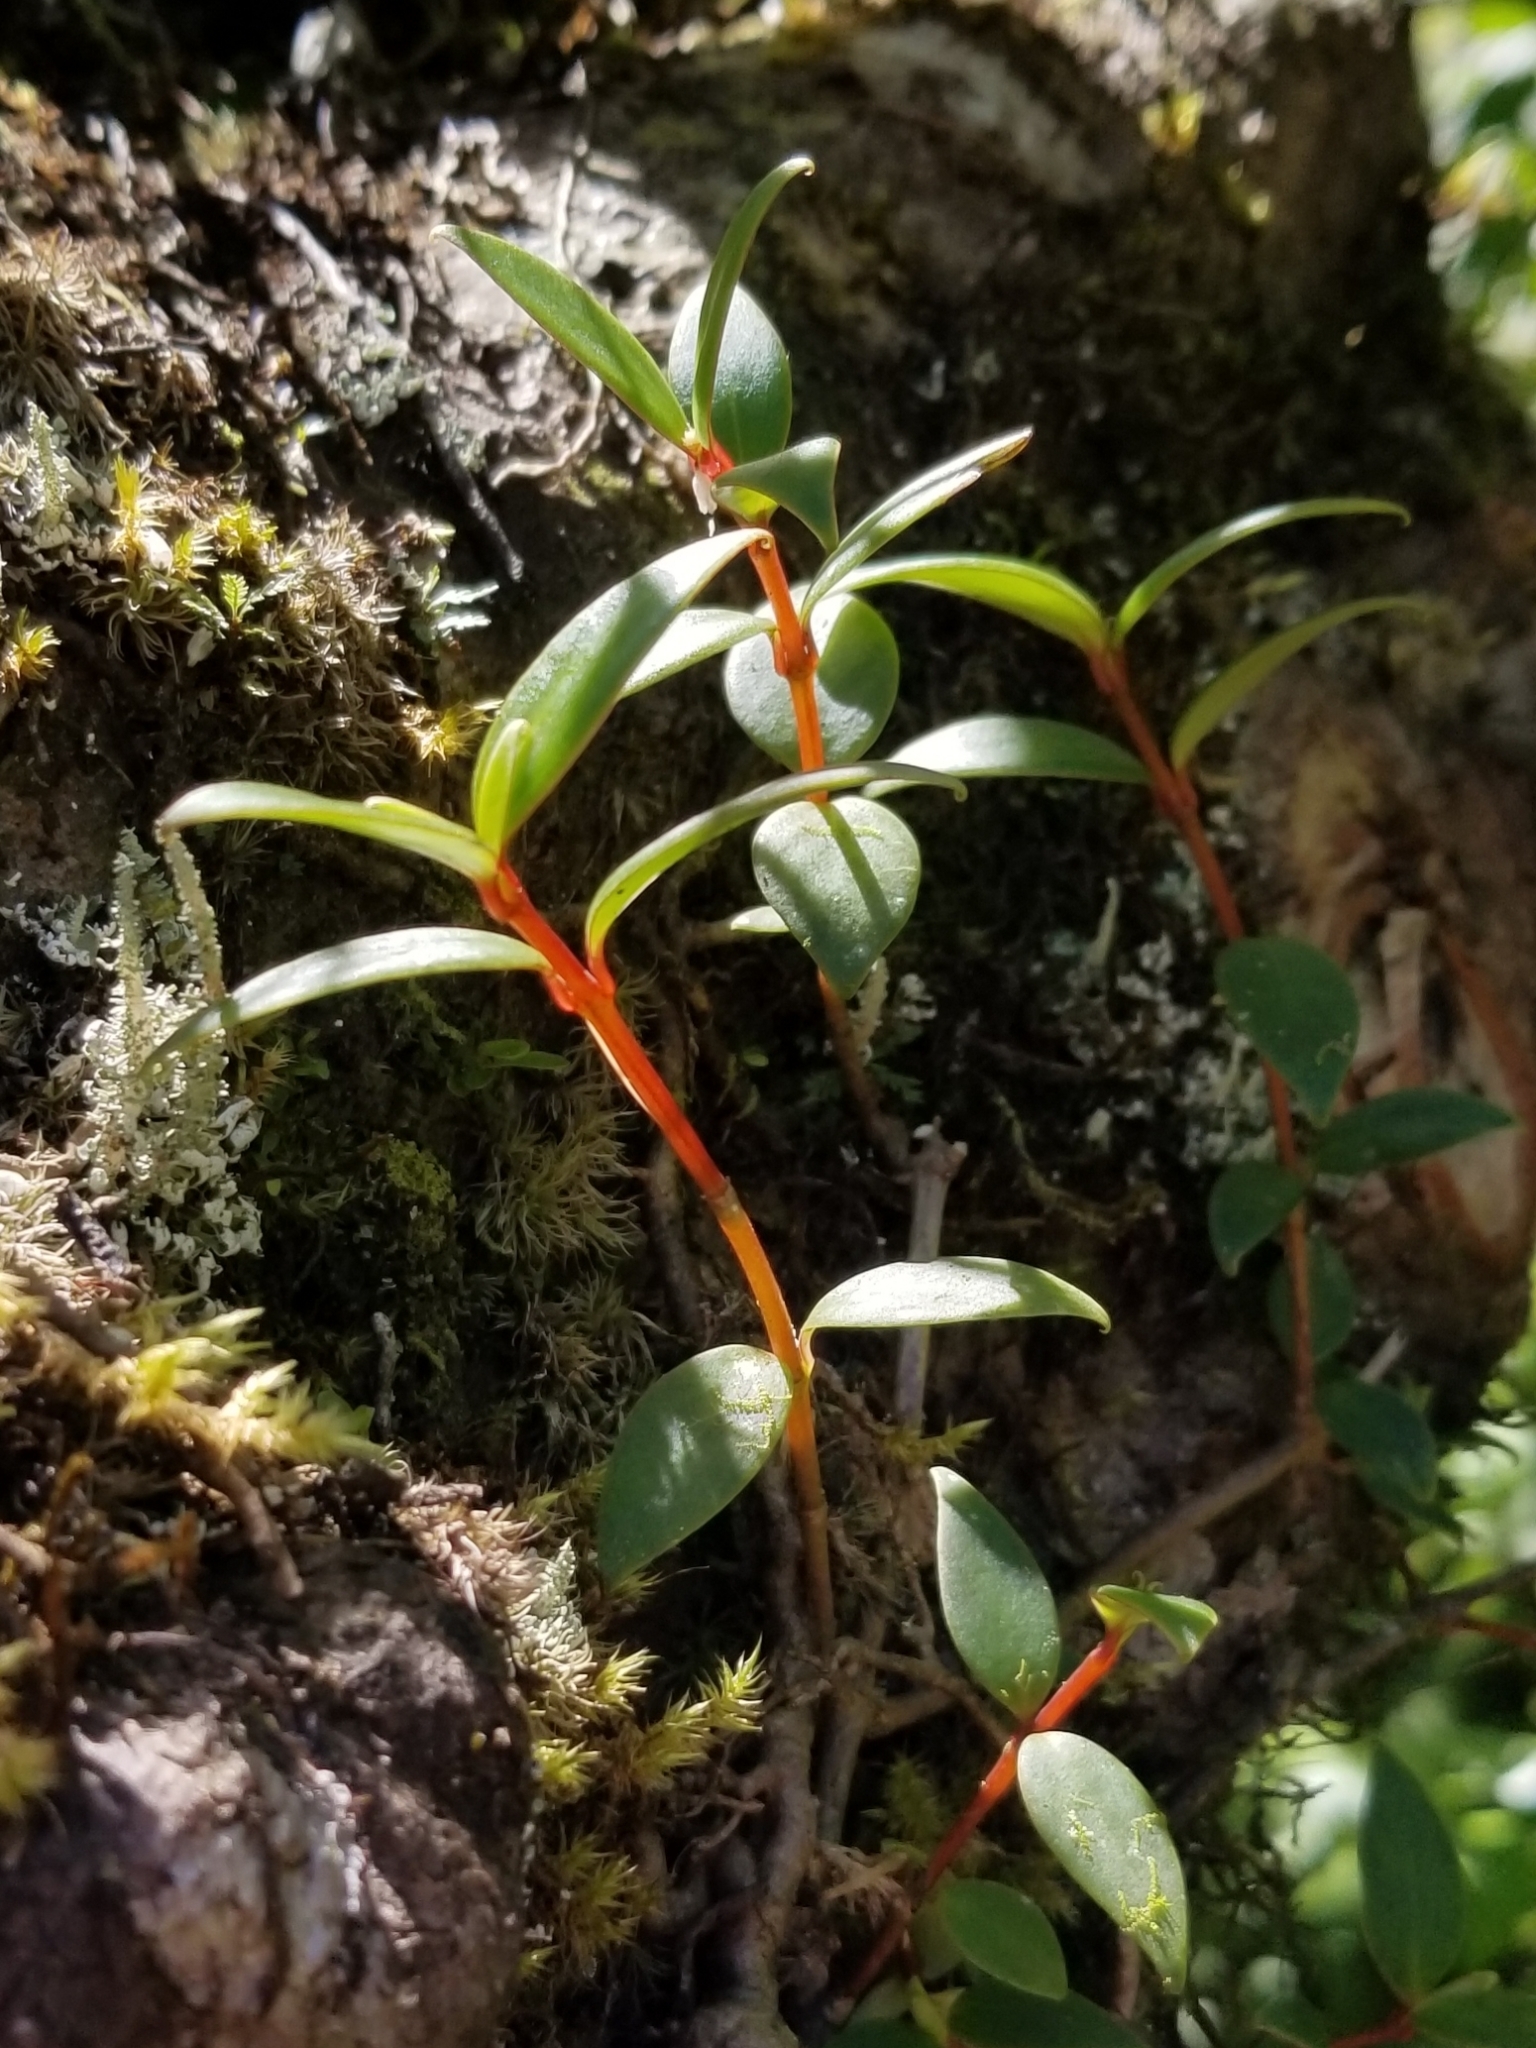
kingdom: Plantae
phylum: Tracheophyta
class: Magnoliopsida
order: Gentianales
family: Rubiaceae
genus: Notopleura
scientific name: Notopleura parasitica
